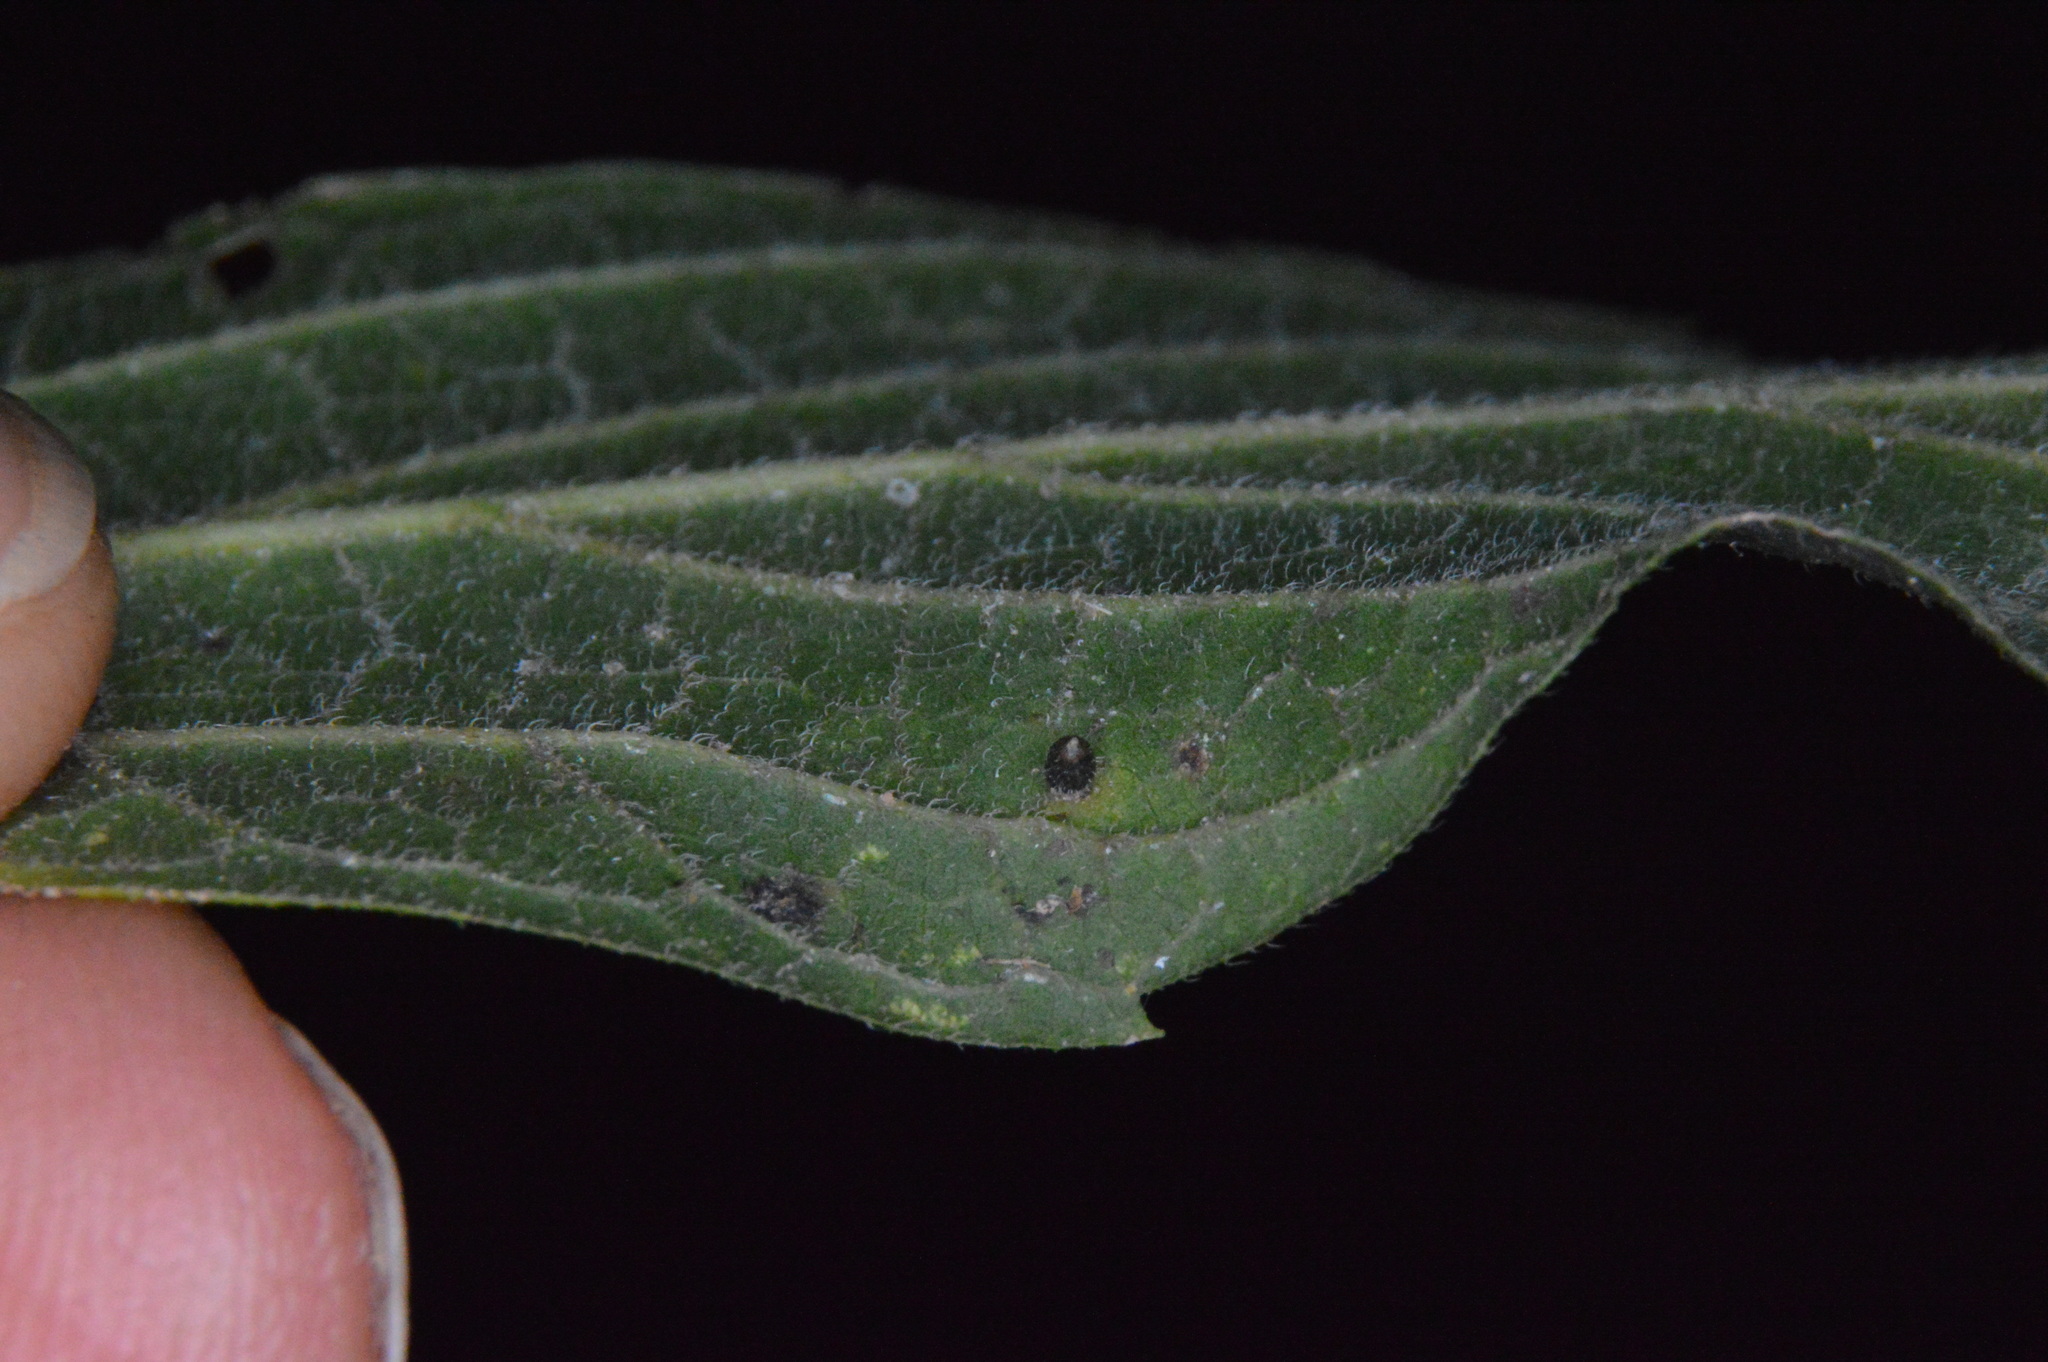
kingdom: Animalia
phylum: Arthropoda
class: Insecta
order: Diptera
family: Cecidomyiidae
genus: Celticecis
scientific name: Celticecis cupiformis
